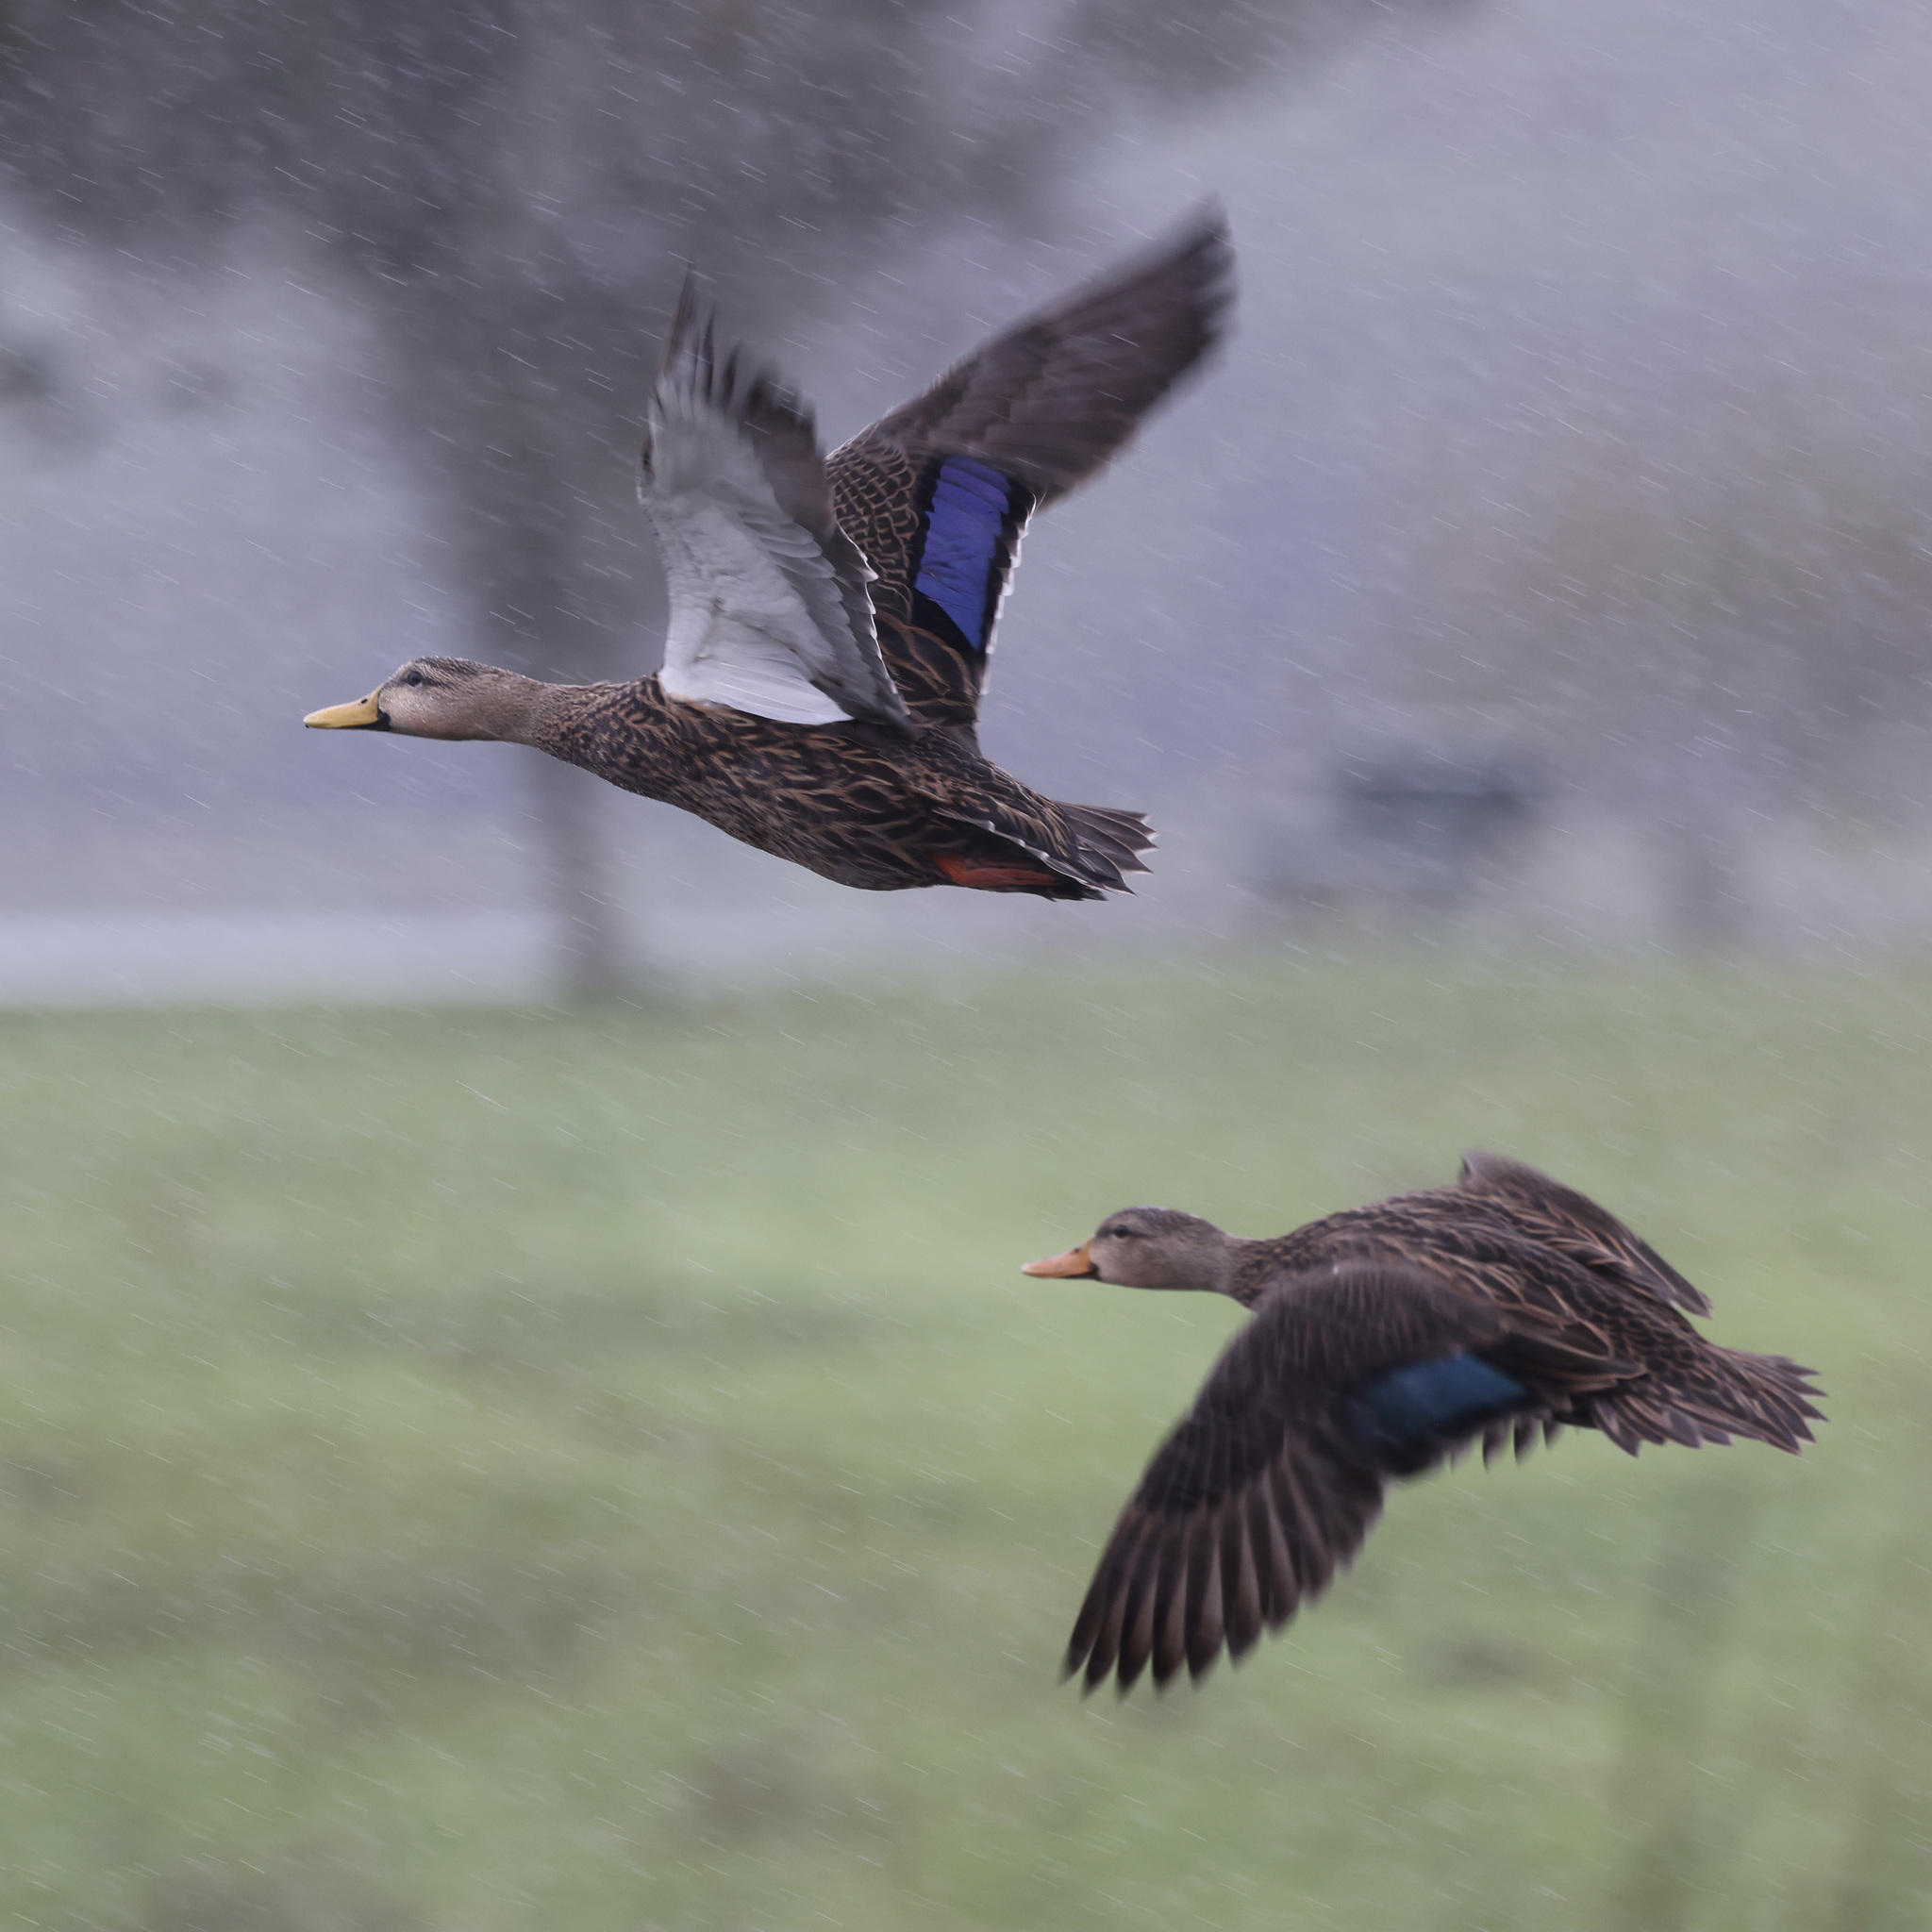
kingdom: Animalia
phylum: Chordata
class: Aves
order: Anseriformes
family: Anatidae
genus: Anas
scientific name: Anas fulvigula
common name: Mottled duck
